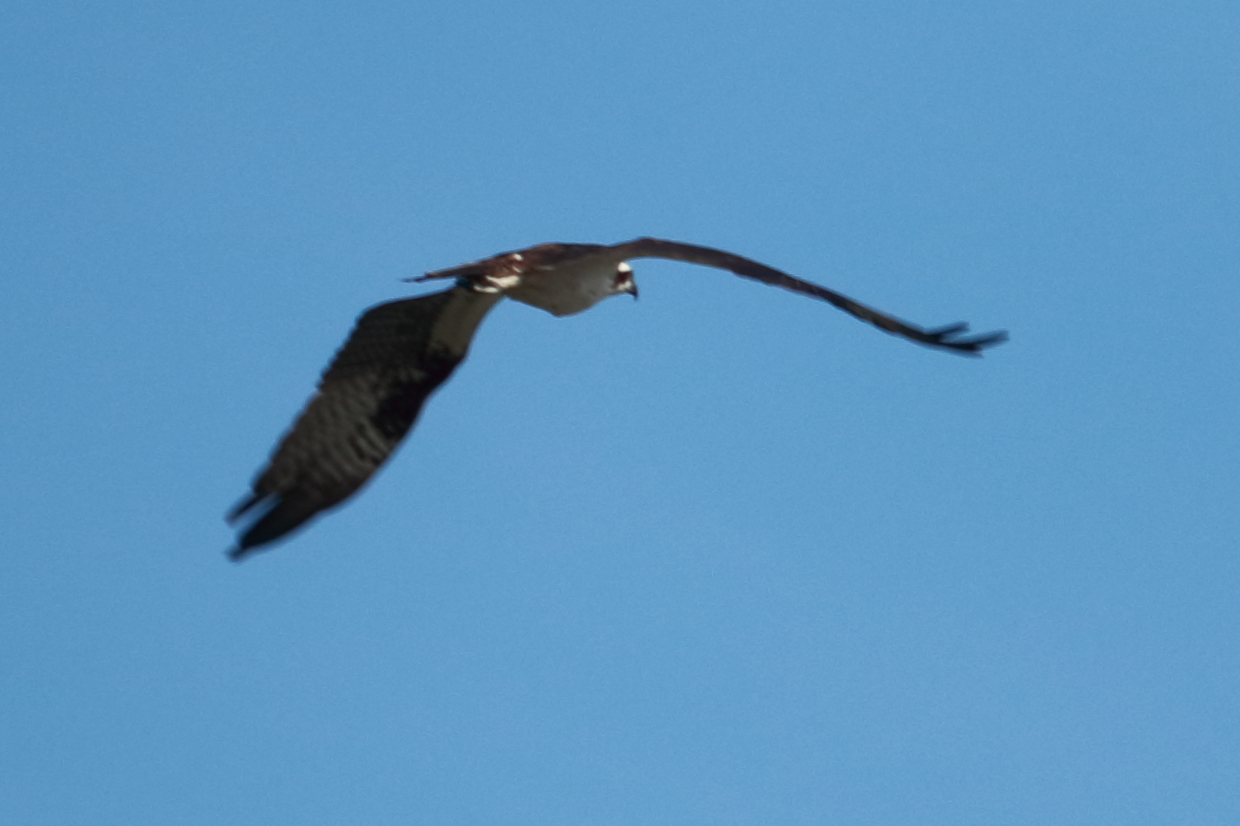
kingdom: Animalia
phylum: Chordata
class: Aves
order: Accipitriformes
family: Pandionidae
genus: Pandion
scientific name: Pandion haliaetus
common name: Osprey
